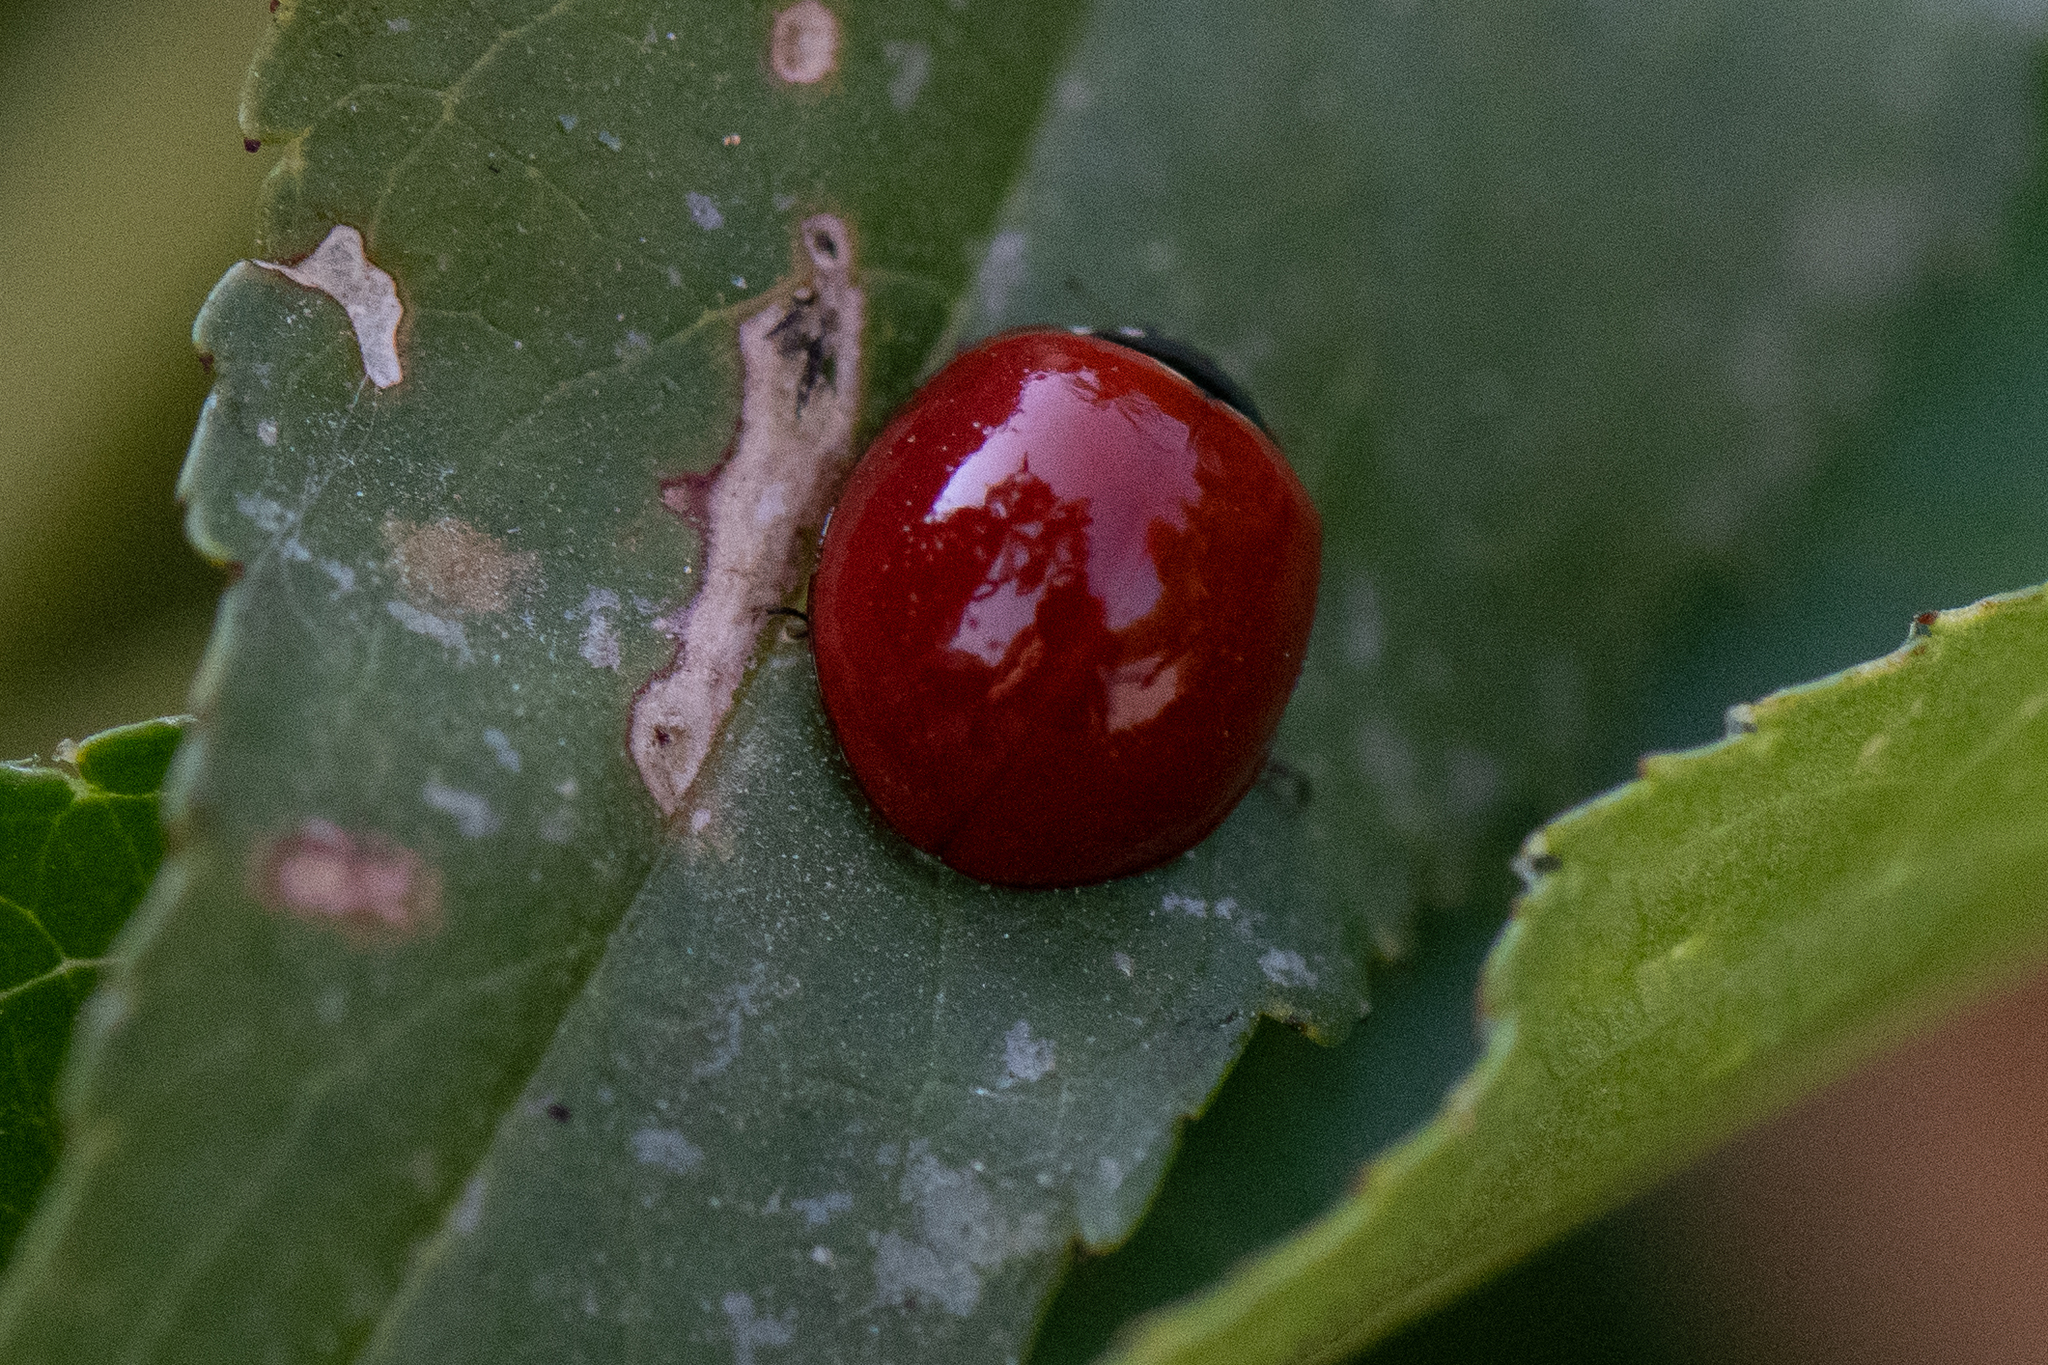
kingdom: Animalia
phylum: Arthropoda
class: Insecta
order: Coleoptera
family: Coccinellidae
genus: Cycloneda
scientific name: Cycloneda
